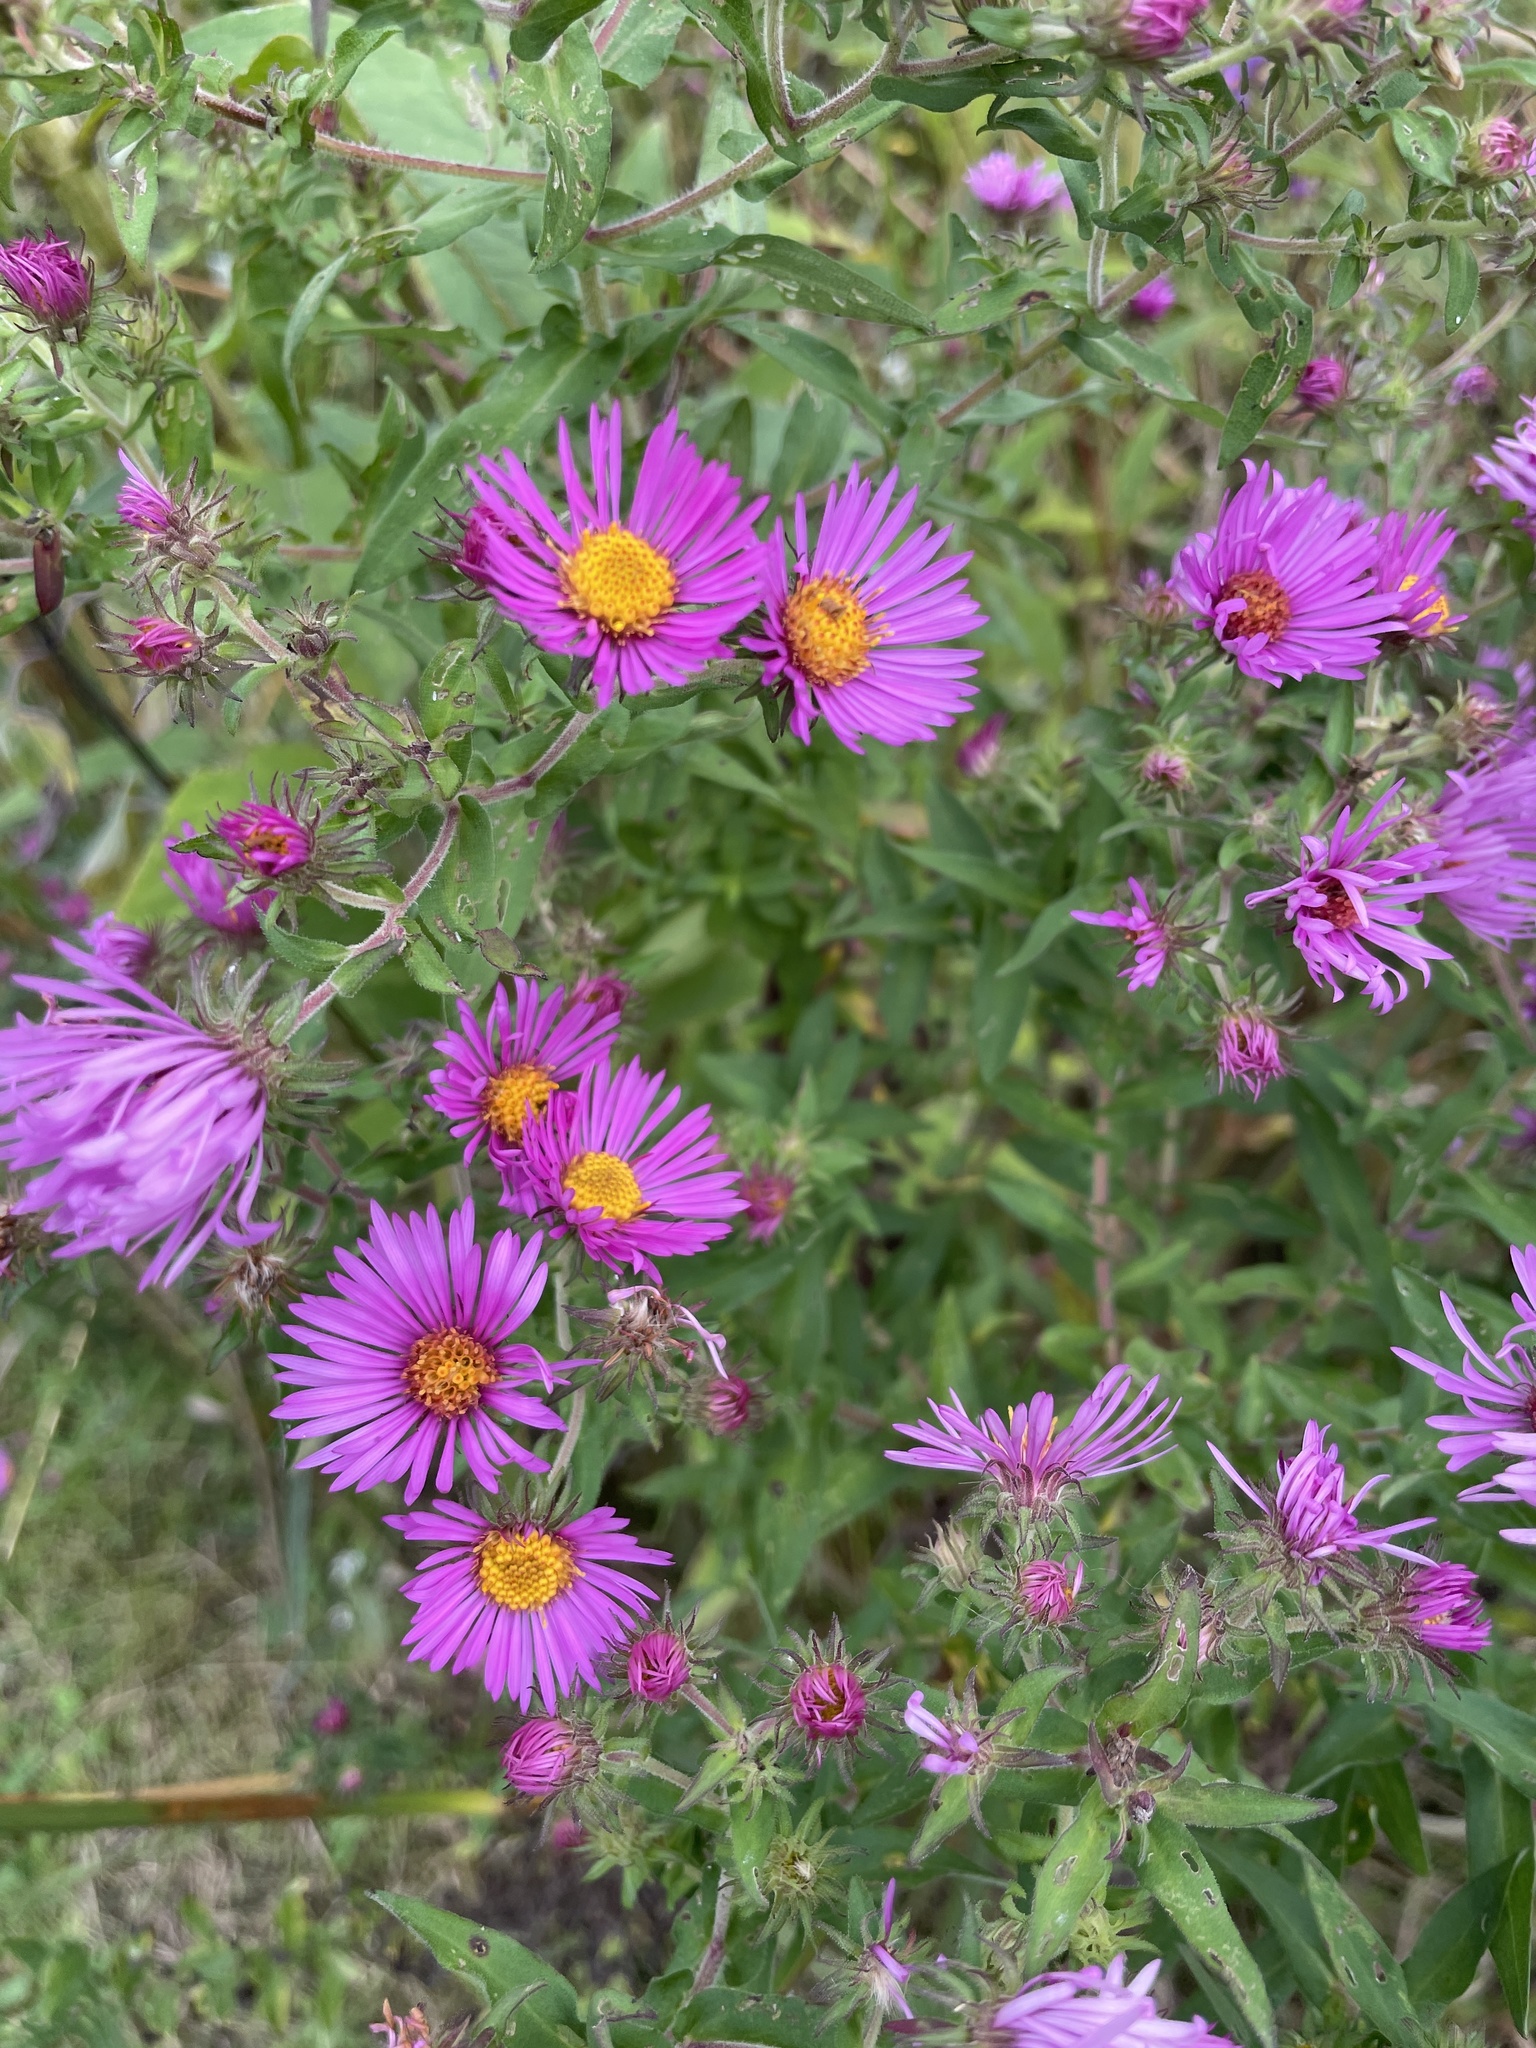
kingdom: Plantae
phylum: Tracheophyta
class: Magnoliopsida
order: Asterales
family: Asteraceae
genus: Symphyotrichum
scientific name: Symphyotrichum novae-angliae
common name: Michaelmas daisy
